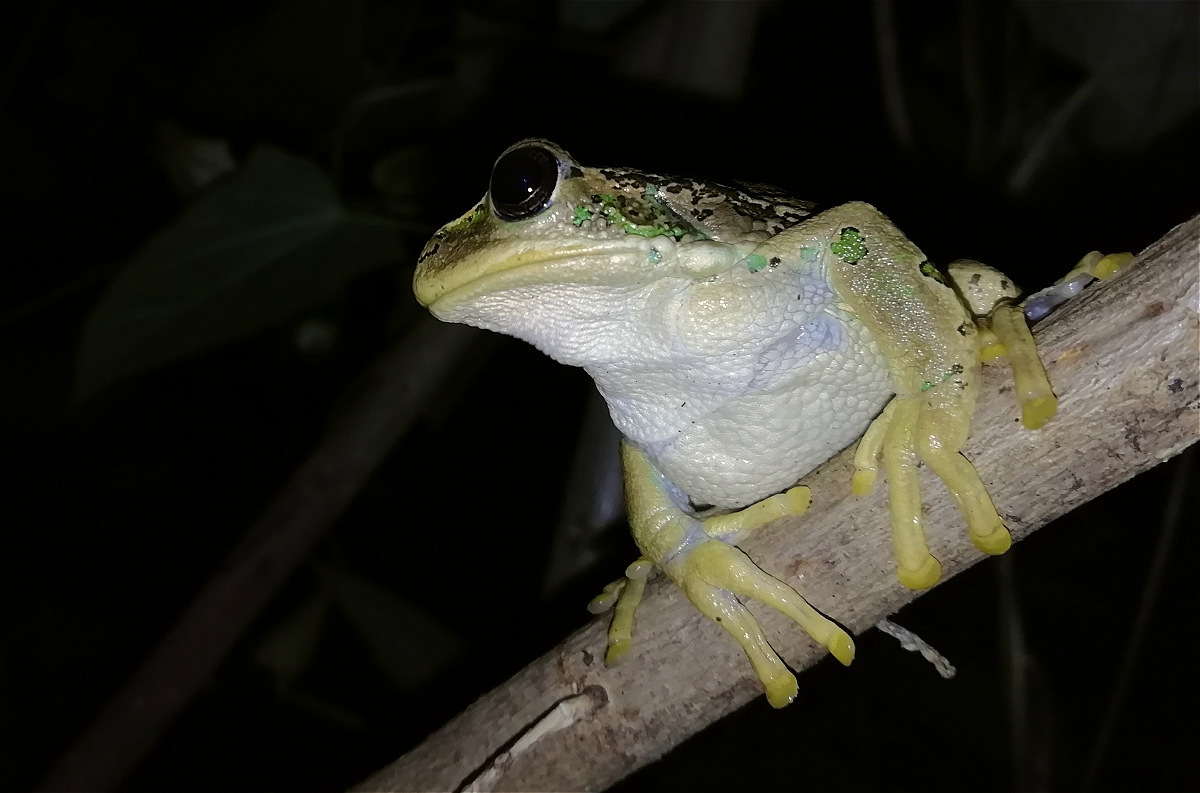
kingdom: Animalia
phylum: Chordata
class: Amphibia
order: Anura
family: Hemiphractidae
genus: Gastrotheca
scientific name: Gastrotheca cuencana
